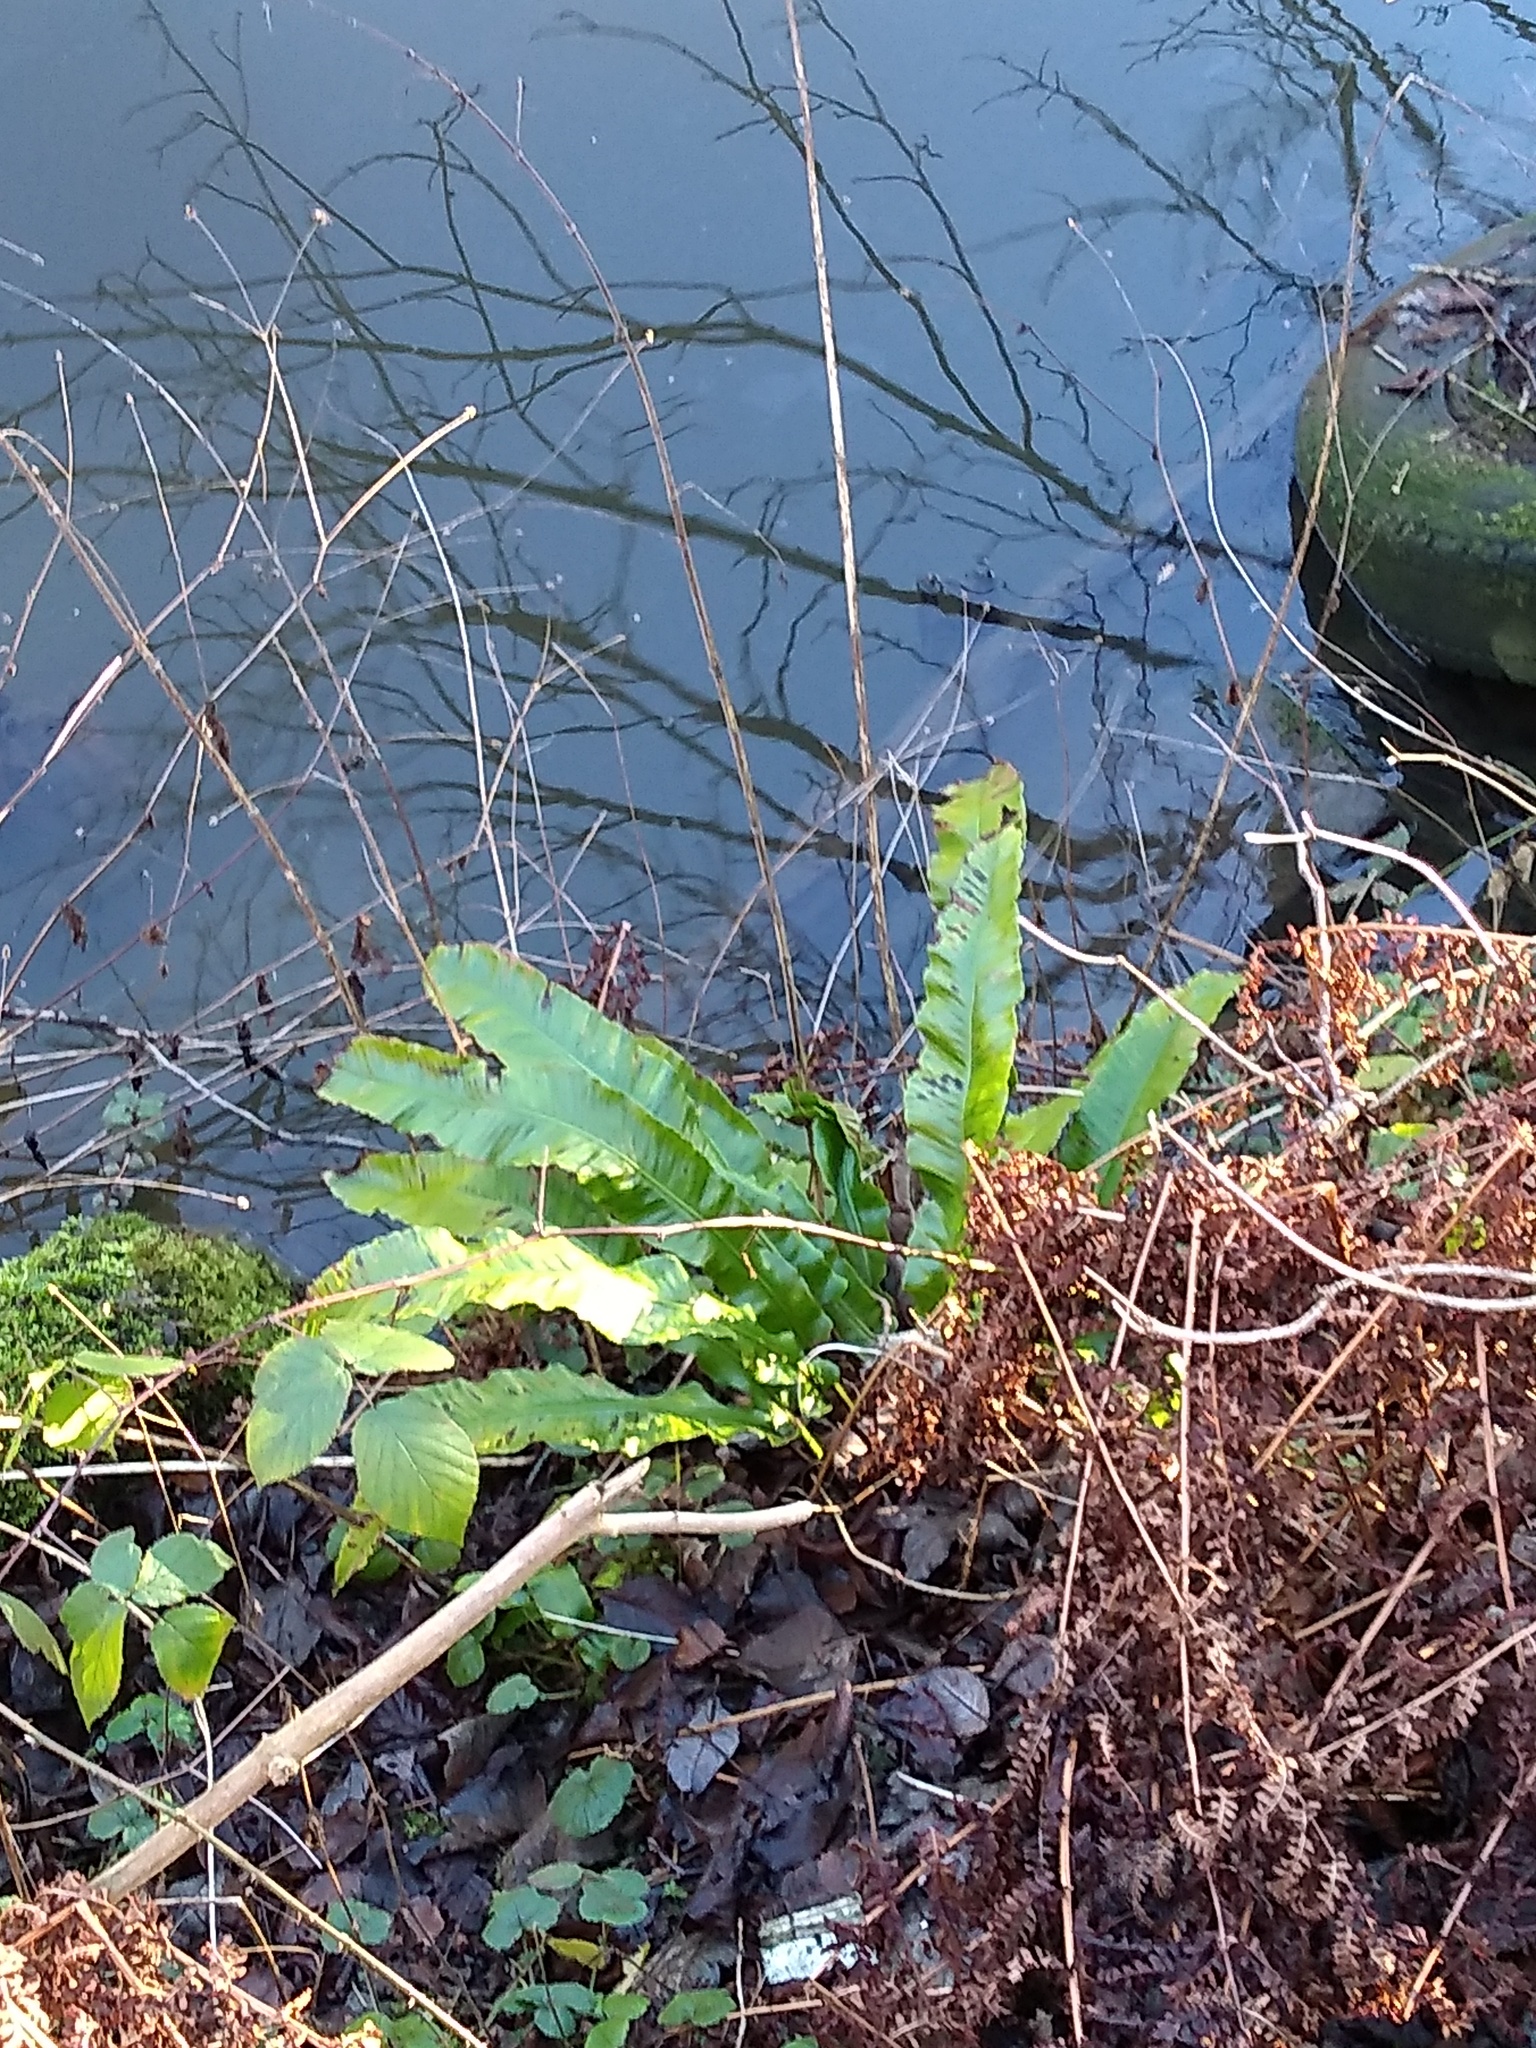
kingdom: Plantae
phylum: Tracheophyta
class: Polypodiopsida
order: Polypodiales
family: Aspleniaceae
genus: Asplenium
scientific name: Asplenium scolopendrium
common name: Hart's-tongue fern
